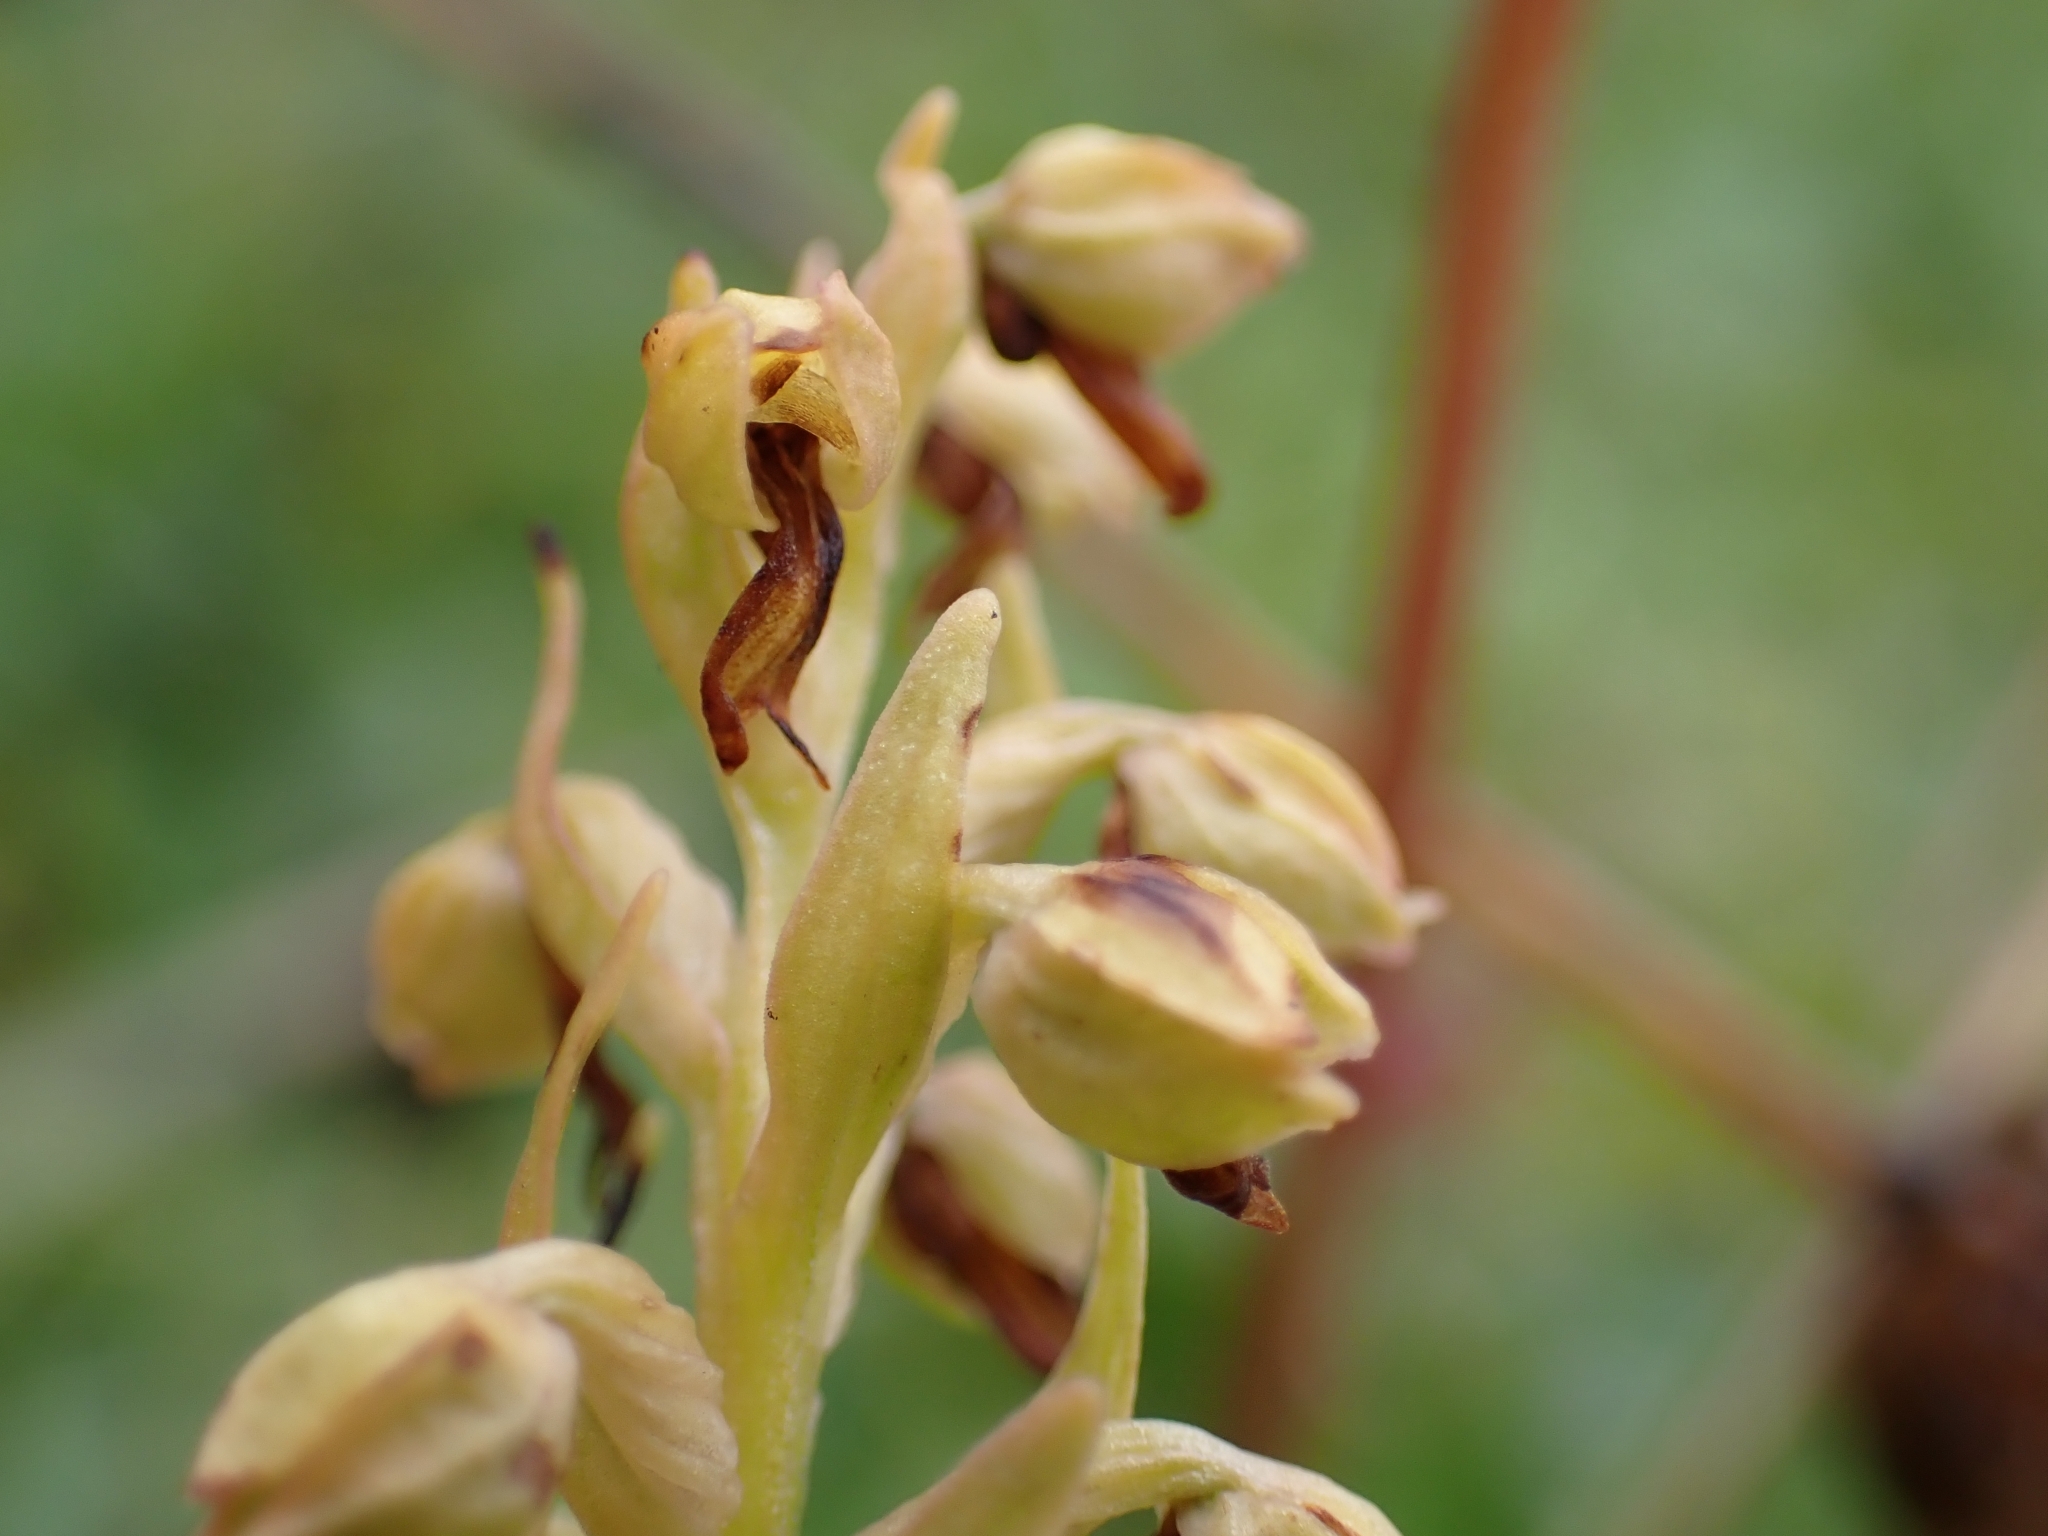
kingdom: Plantae
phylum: Tracheophyta
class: Liliopsida
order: Asparagales
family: Orchidaceae
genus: Dactylorhiza
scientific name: Dactylorhiza viridis
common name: Longbract frog orchid
